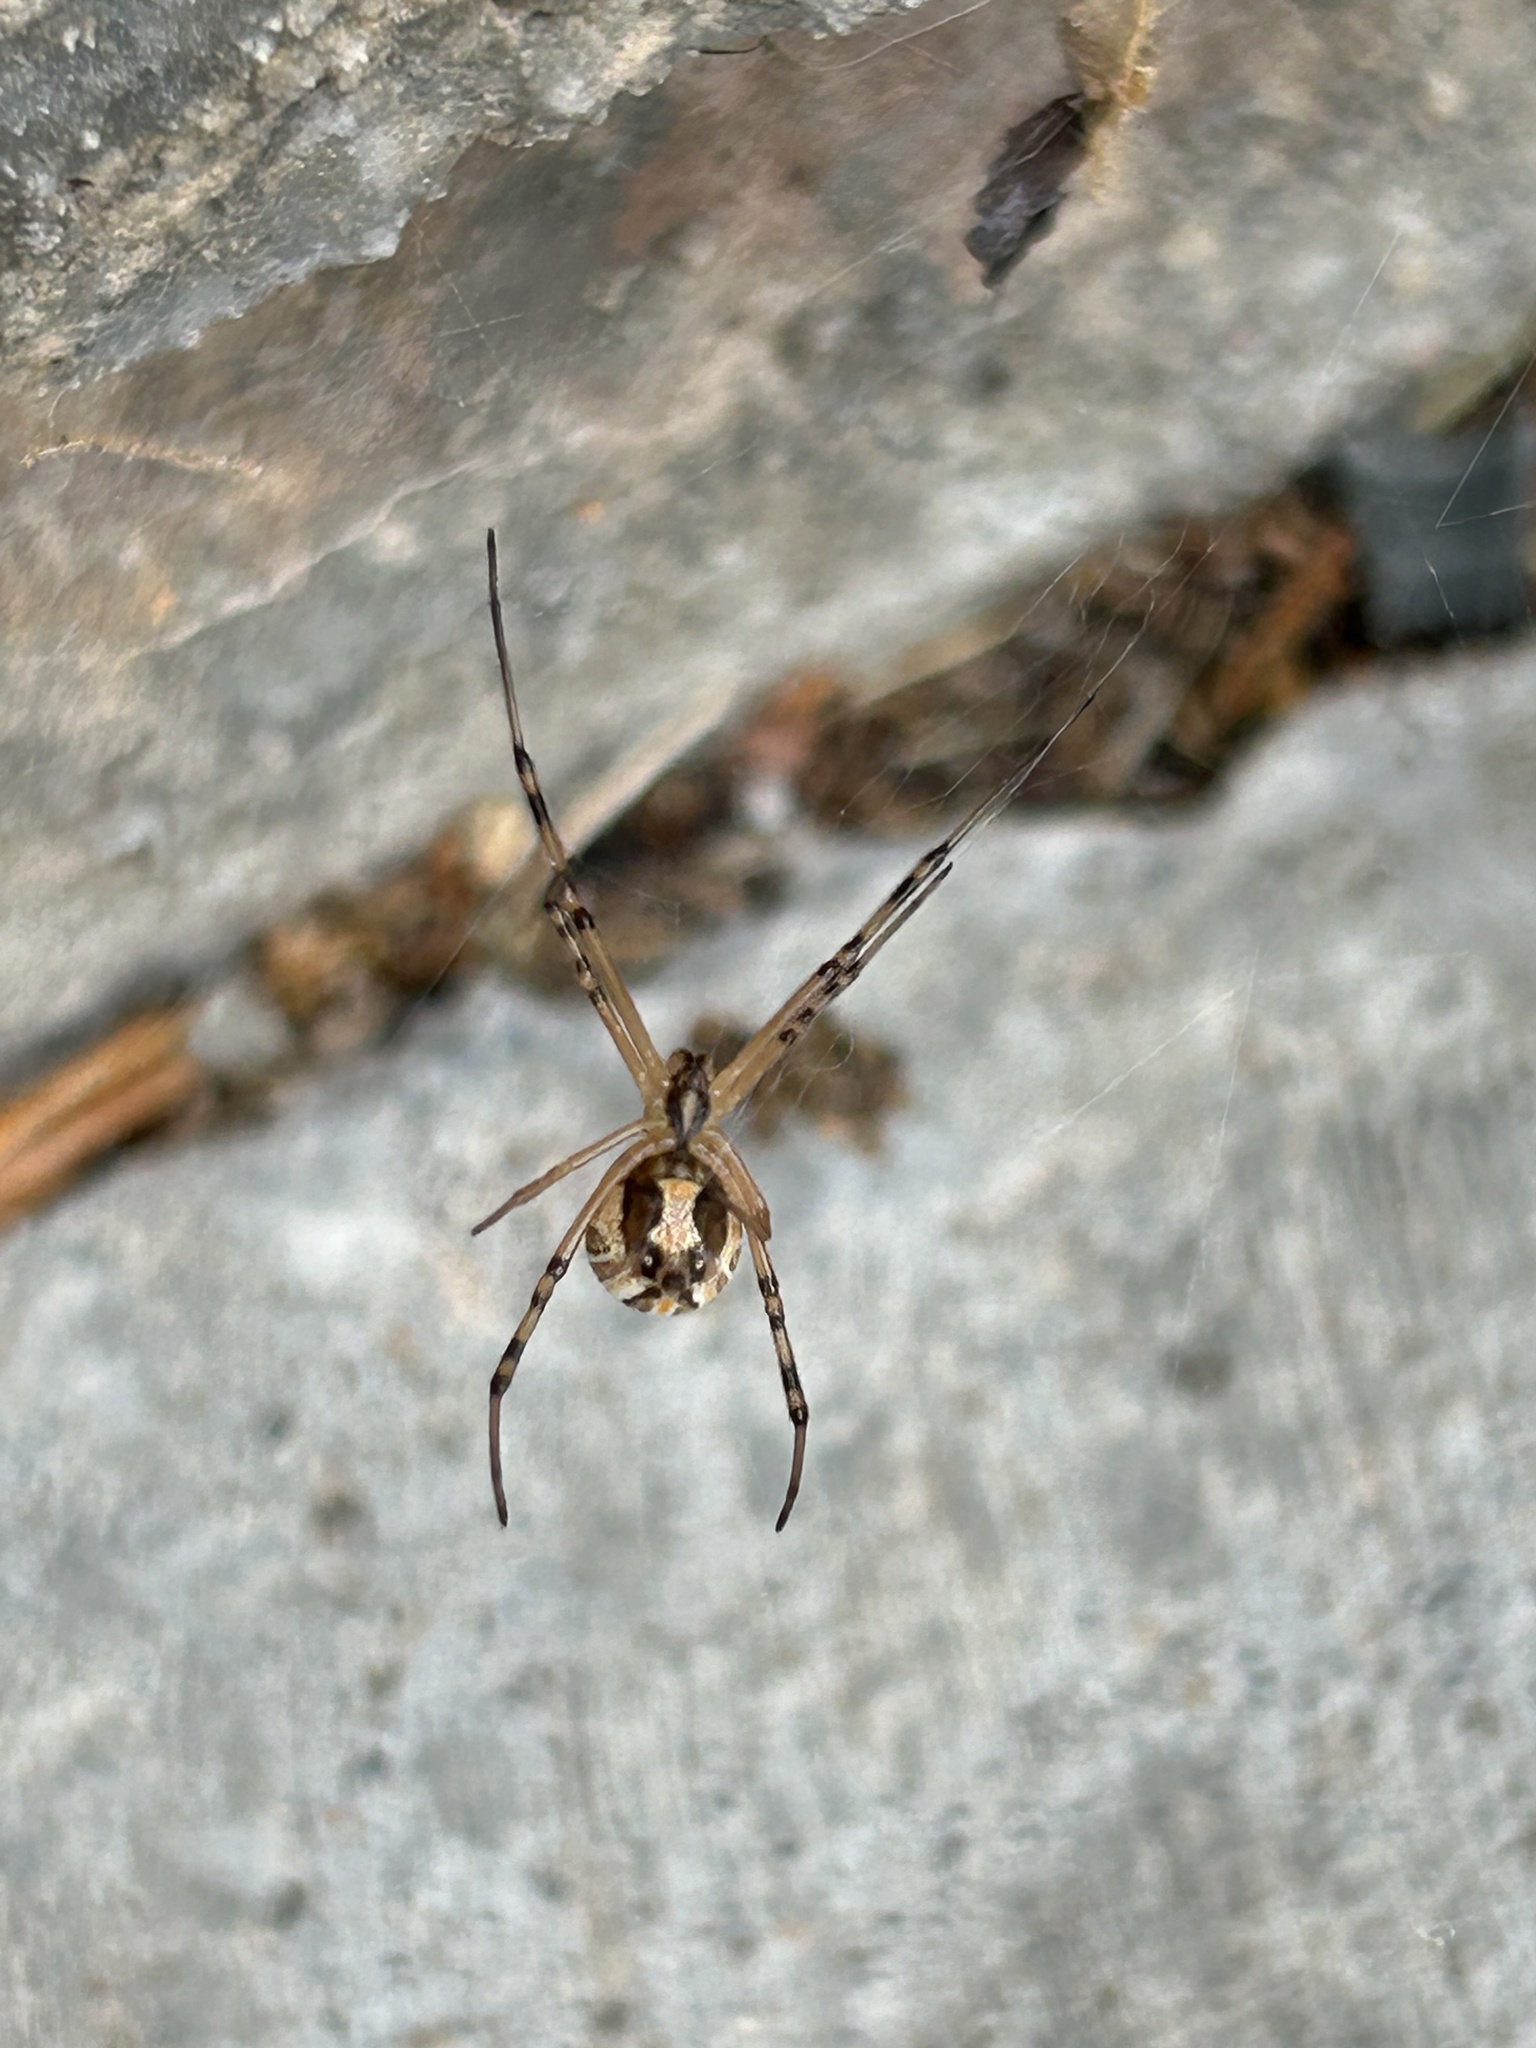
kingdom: Animalia
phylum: Arthropoda
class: Arachnida
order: Araneae
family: Theridiidae
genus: Latrodectus
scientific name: Latrodectus hesperus
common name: Western black widow
